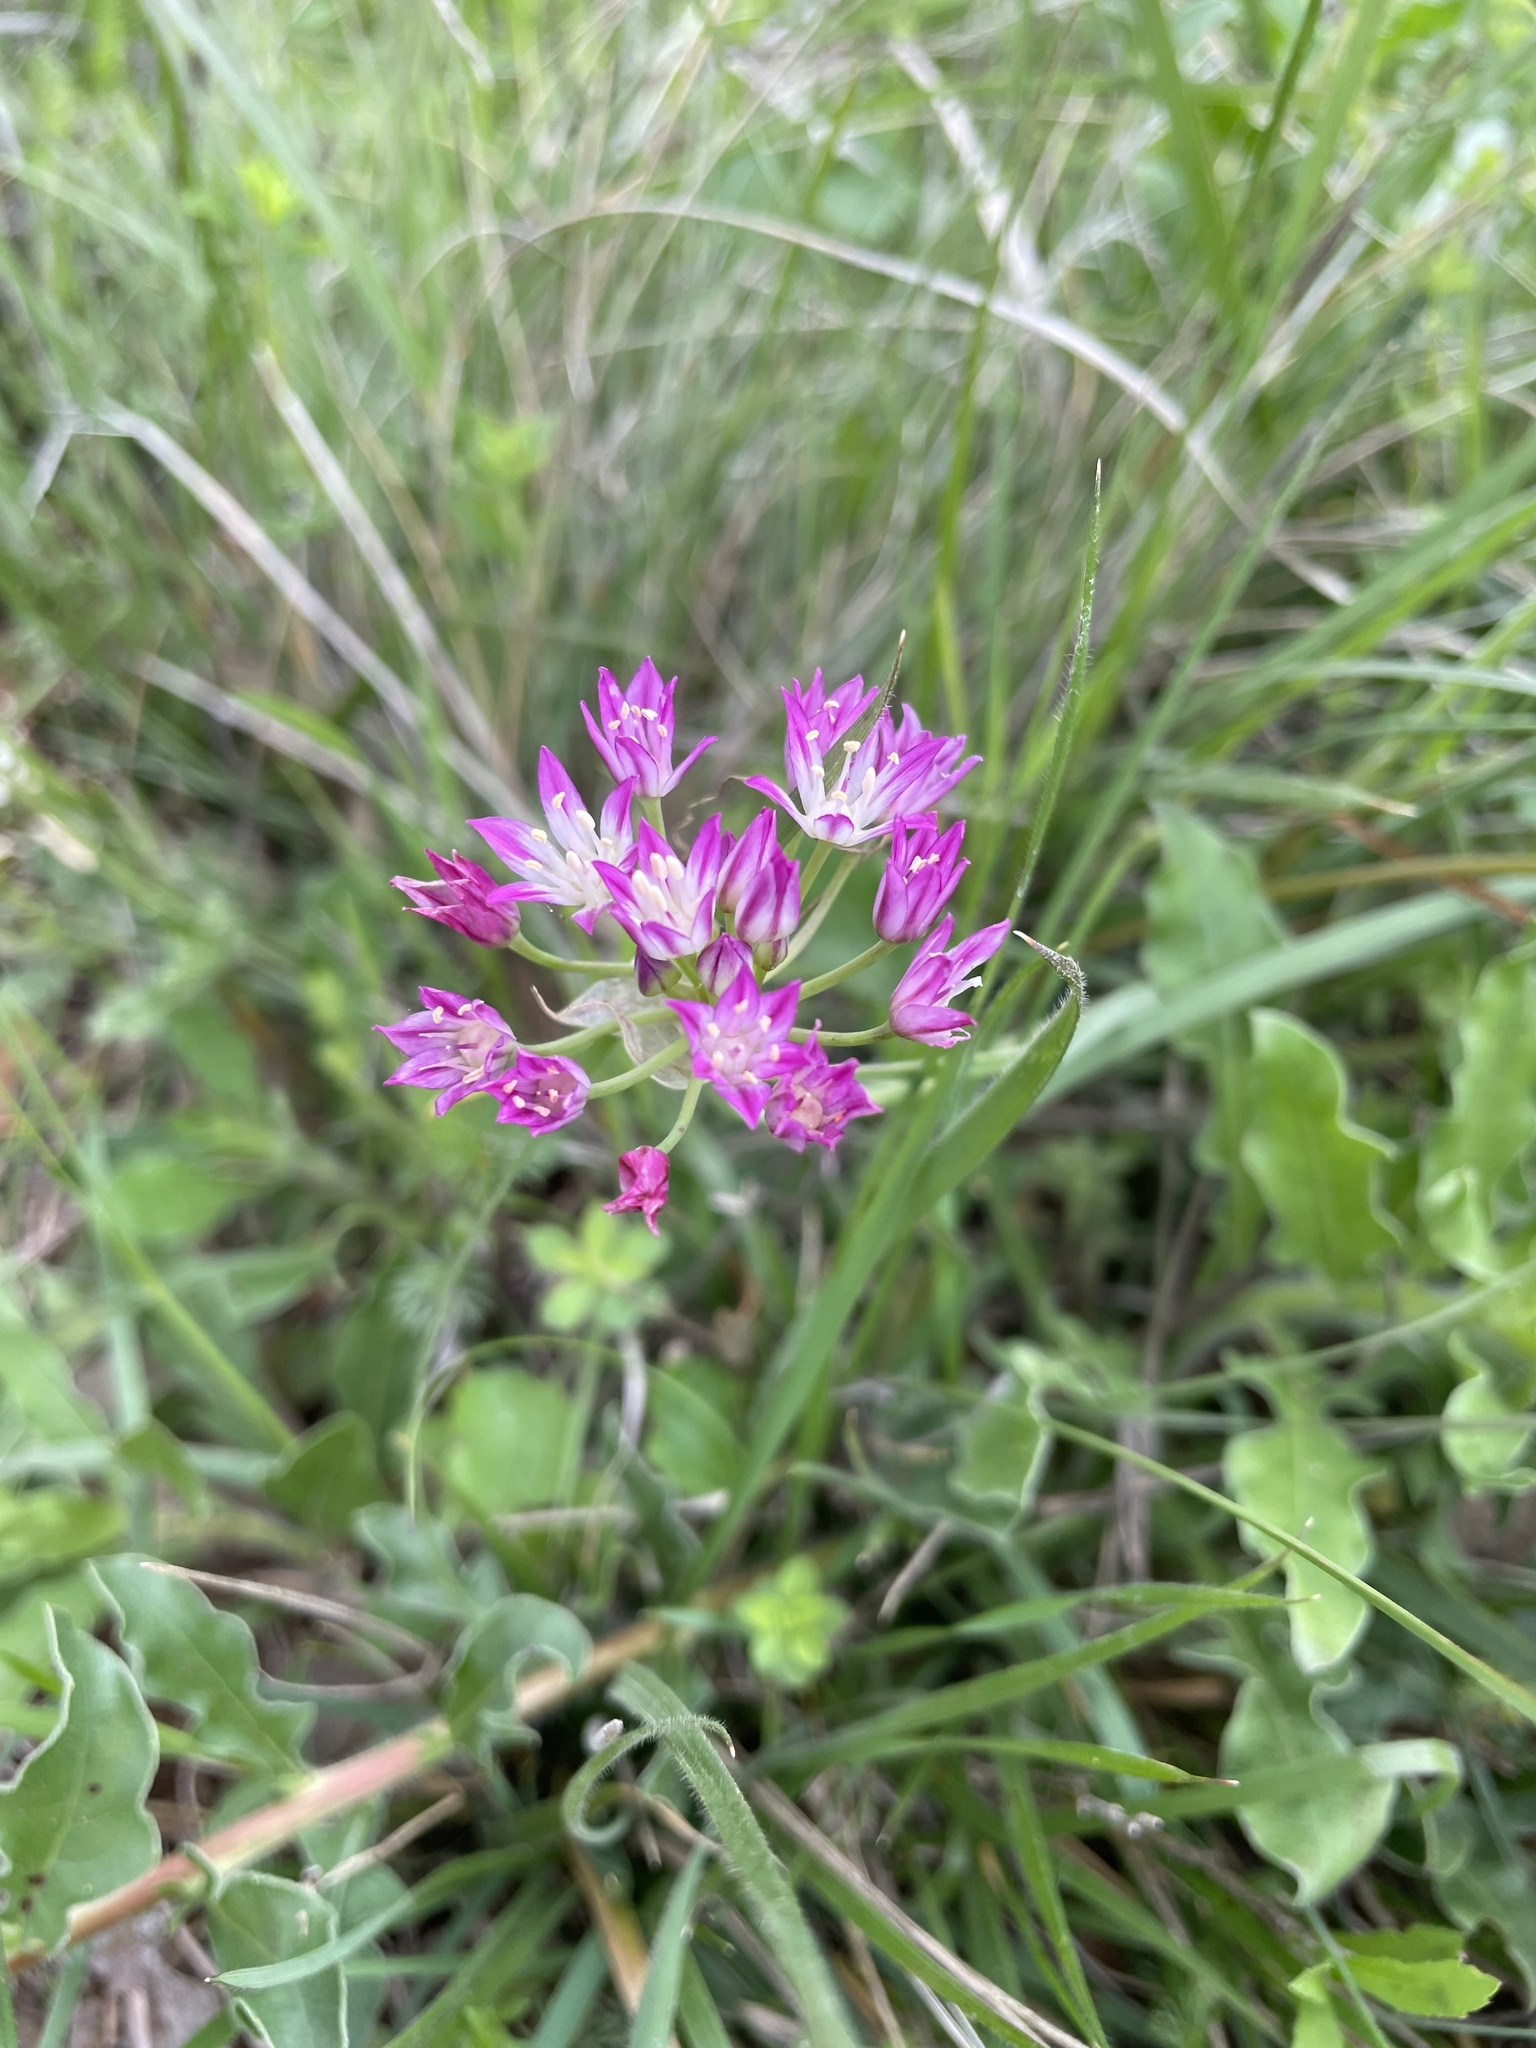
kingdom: Plantae
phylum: Tracheophyta
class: Liliopsida
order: Asparagales
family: Amaryllidaceae
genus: Allium
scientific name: Allium drummondii
